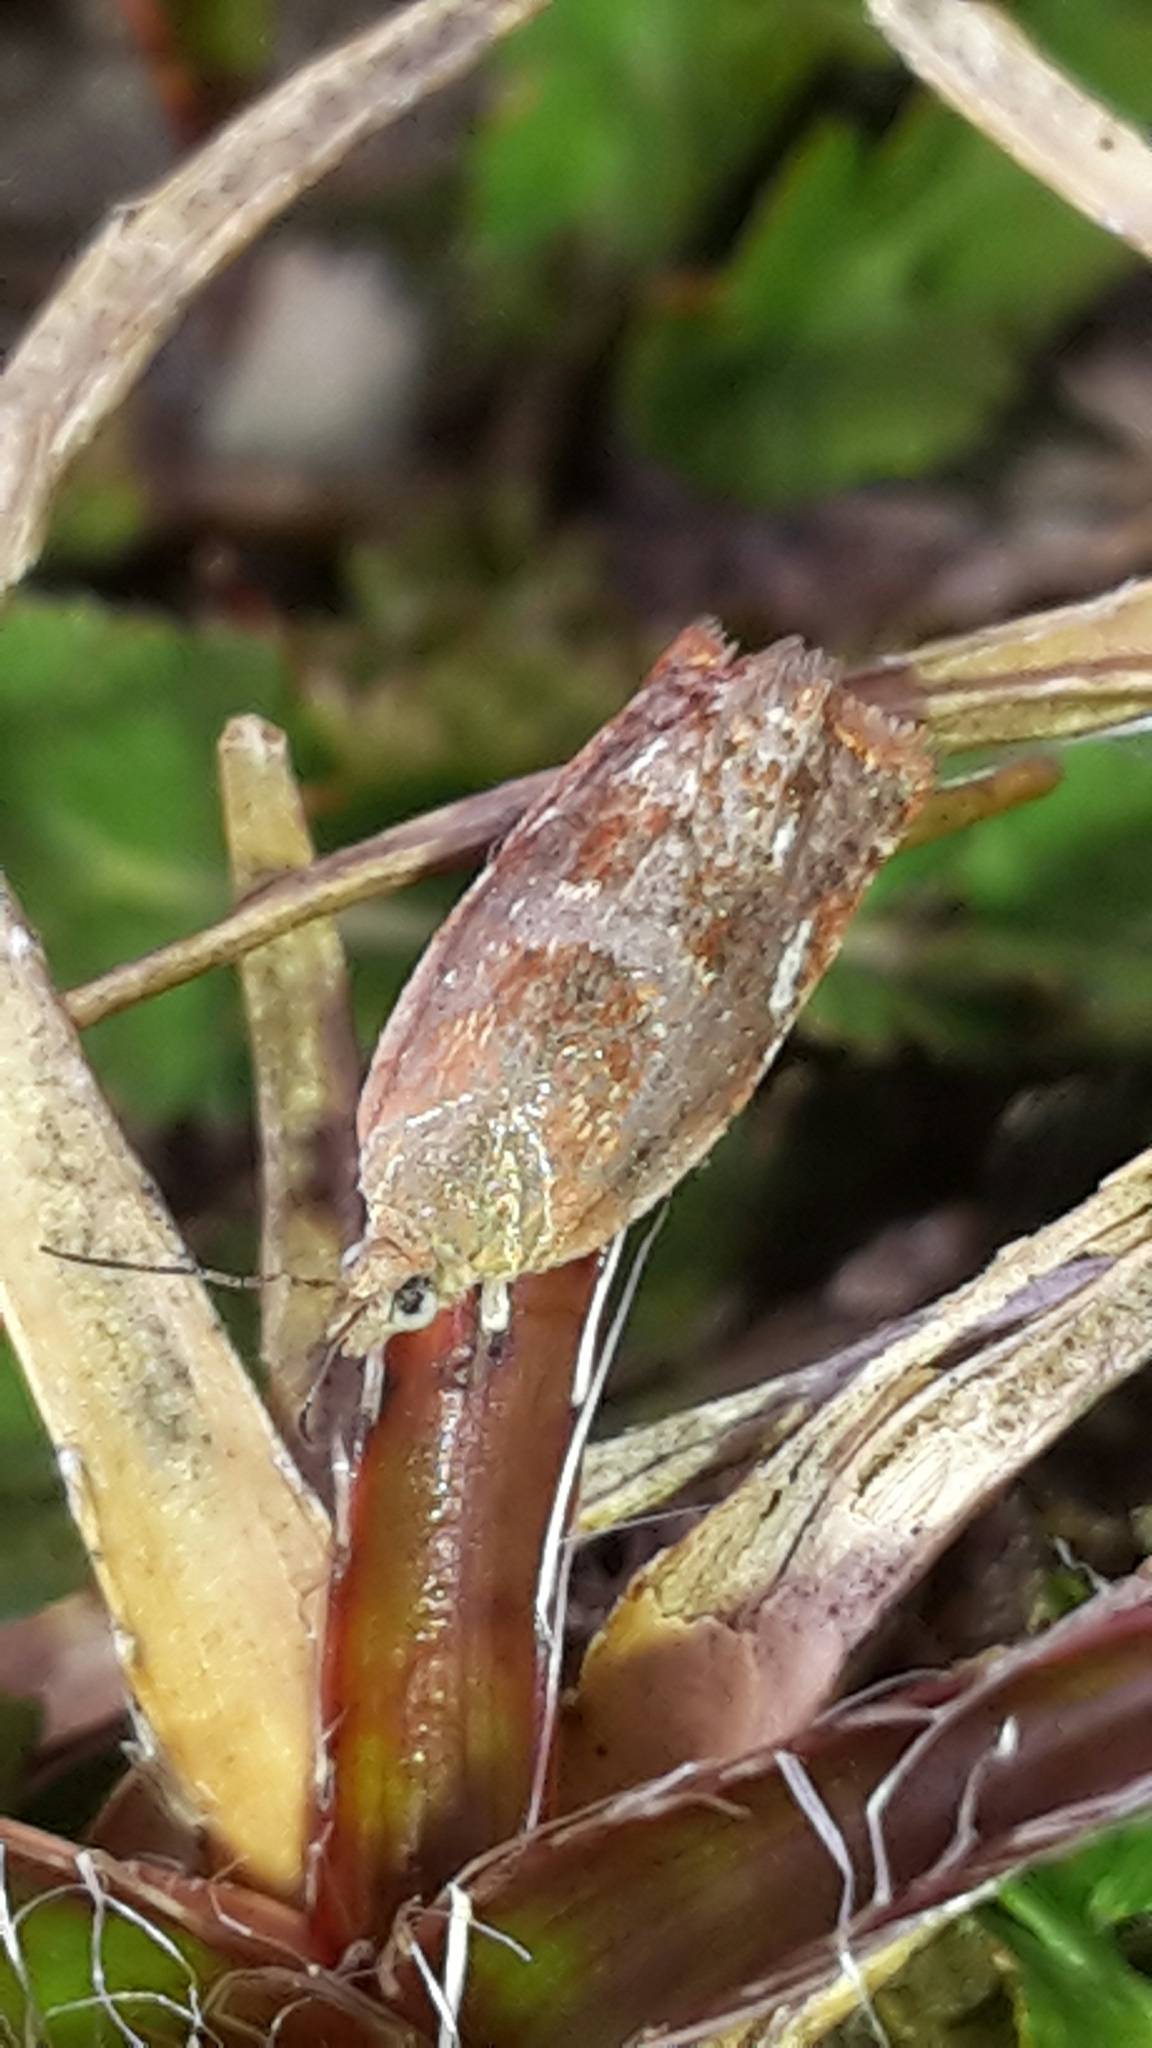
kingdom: Animalia
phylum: Arthropoda
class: Insecta
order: Lepidoptera
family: Tortricidae
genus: Epichorista
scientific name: Epichorista emphanes
